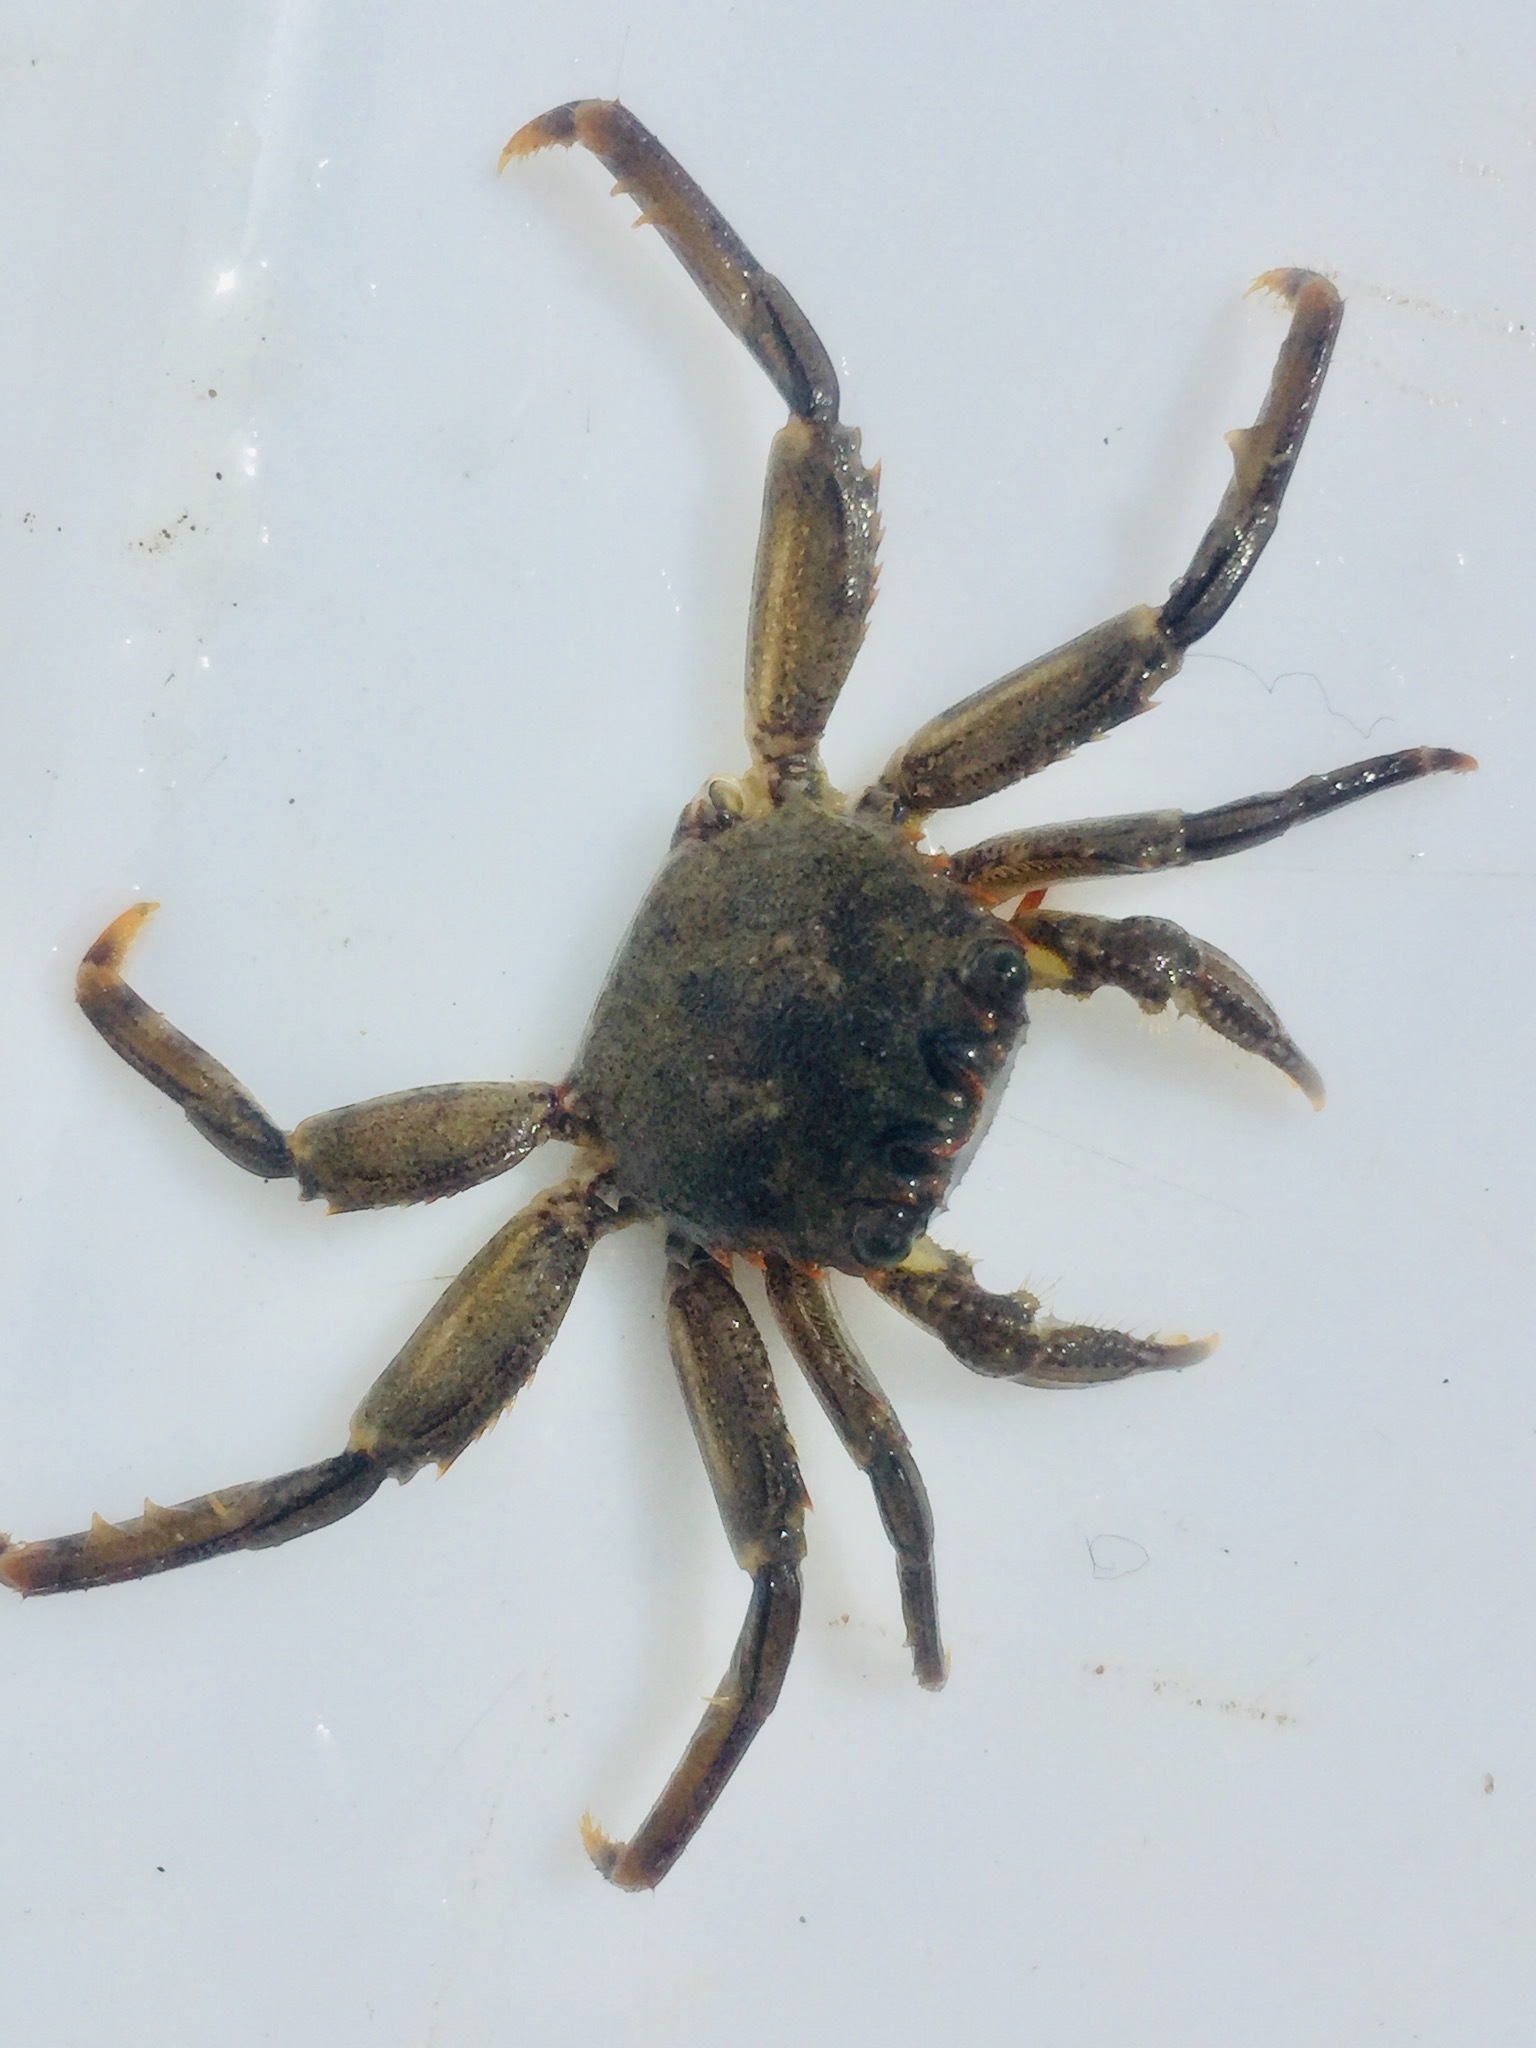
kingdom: Animalia
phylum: Arthropoda
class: Malacostraca
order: Decapoda
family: Plagusiidae
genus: Guinusia
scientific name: Guinusia chabrus
